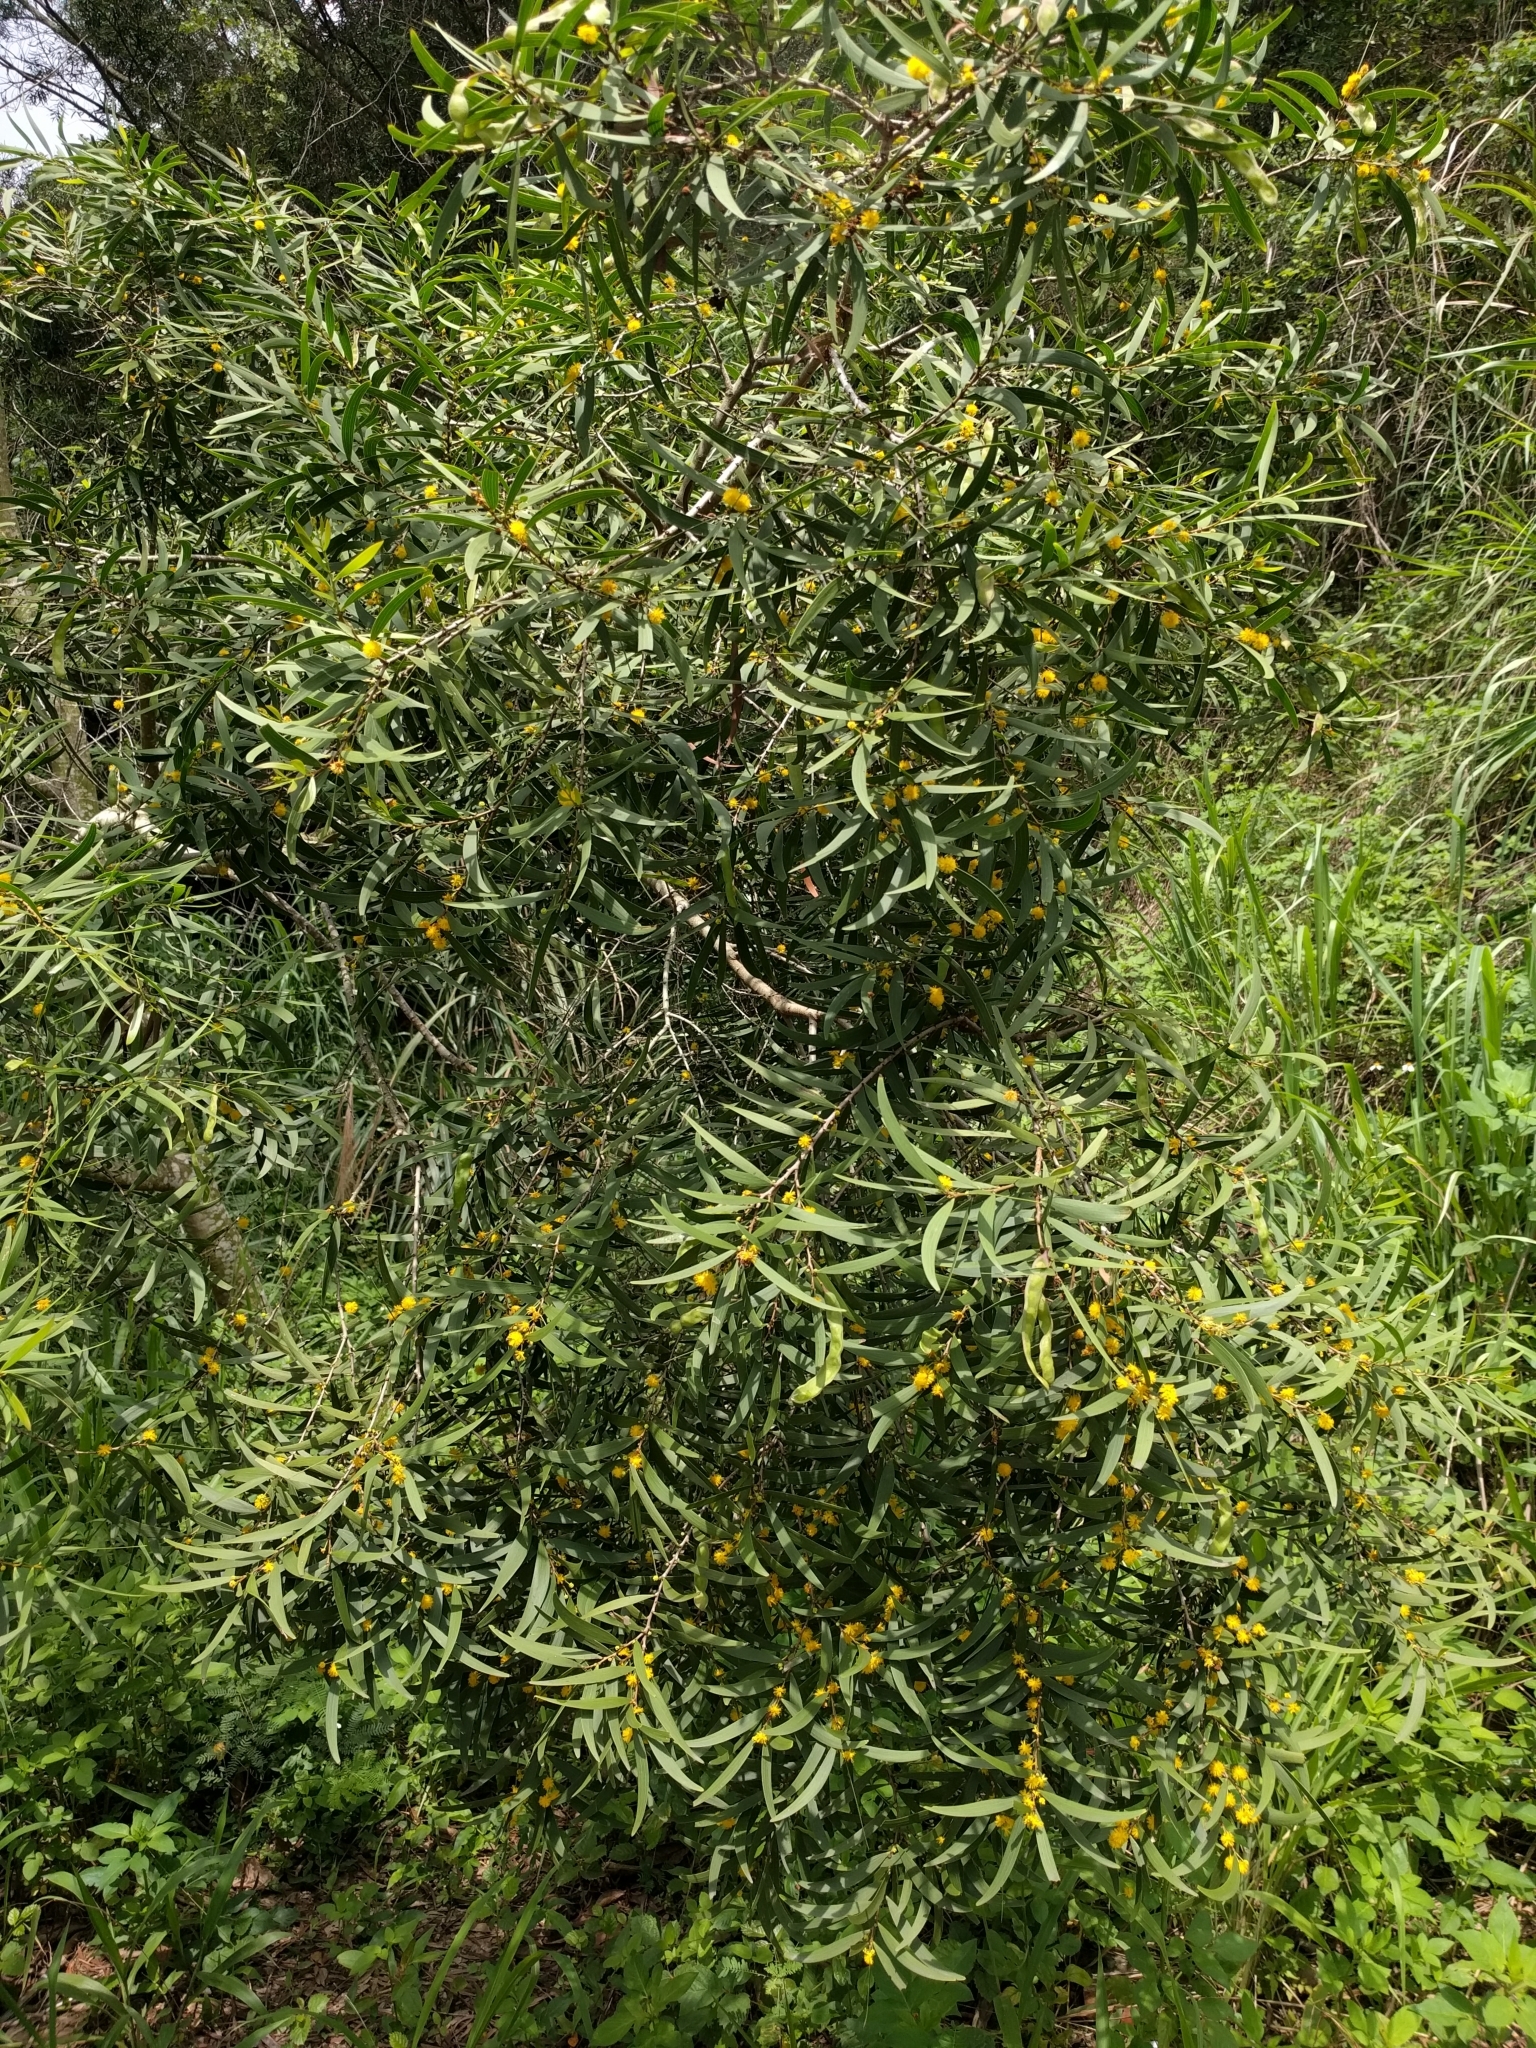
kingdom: Plantae
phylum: Tracheophyta
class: Magnoliopsida
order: Fabales
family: Fabaceae
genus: Acacia
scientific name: Acacia confusa
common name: Formosan koa
